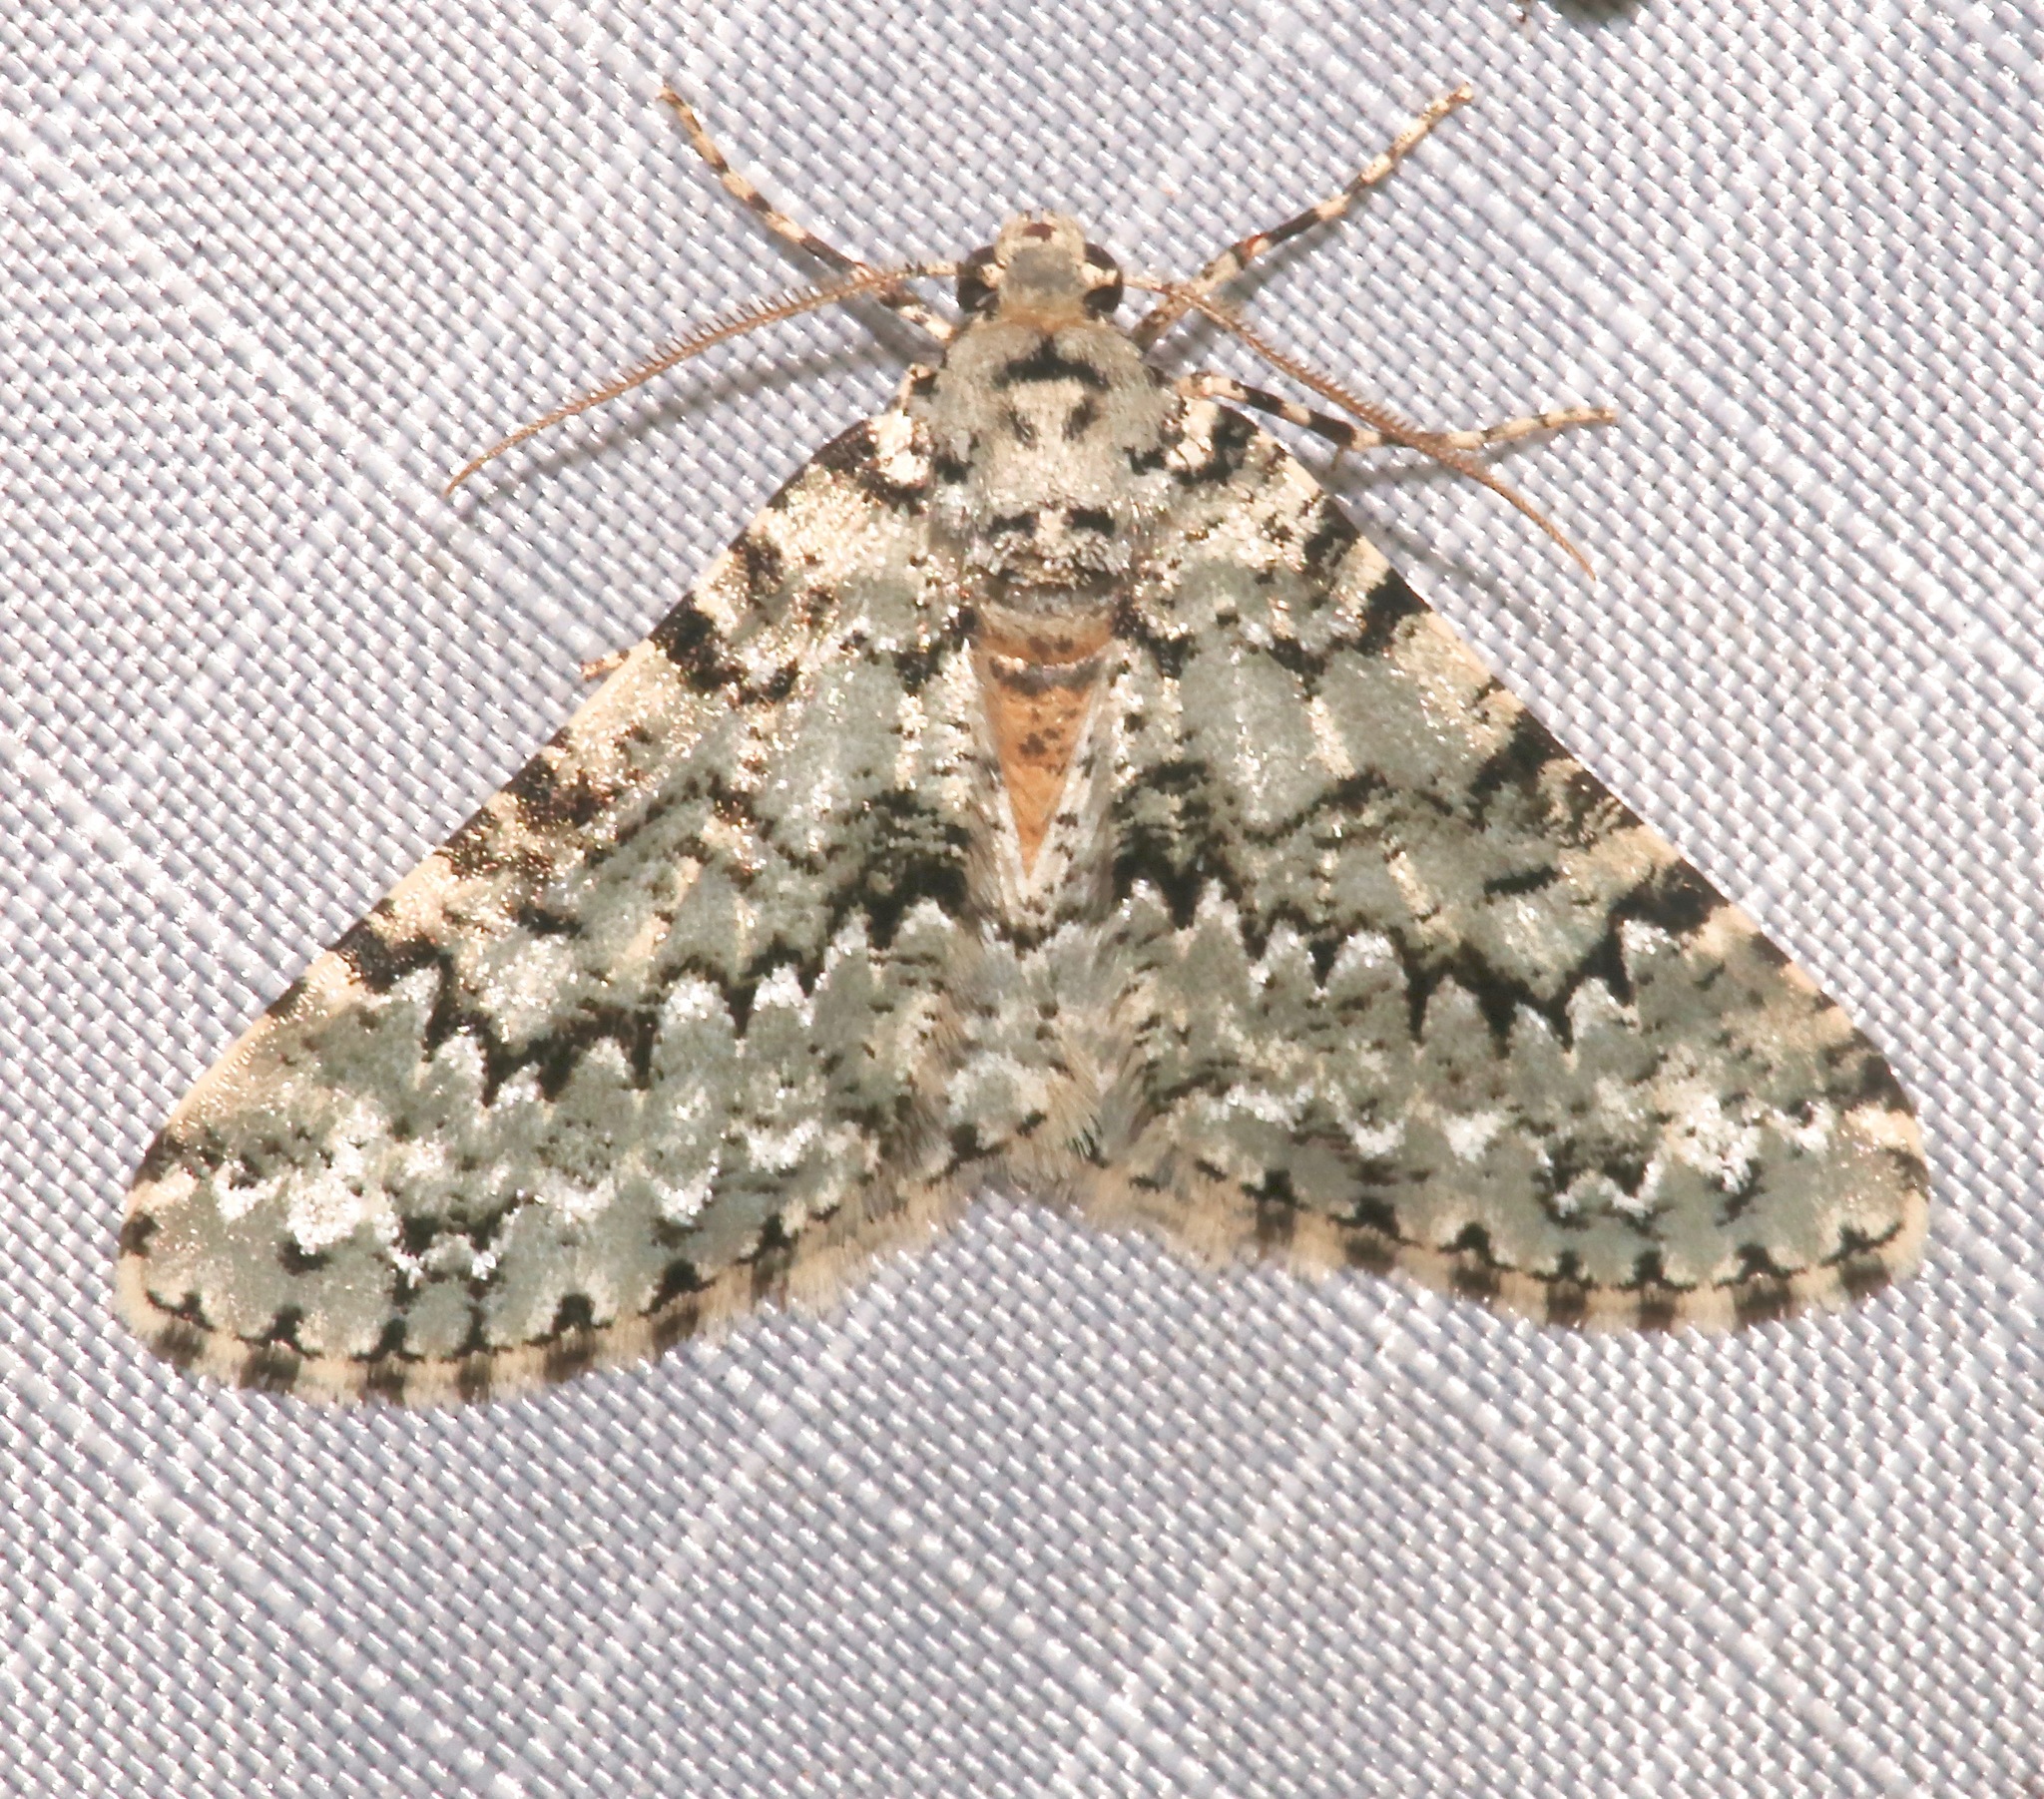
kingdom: Animalia
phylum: Arthropoda
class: Insecta
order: Lepidoptera
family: Geometridae
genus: Tracheops
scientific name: Tracheops bolteri
